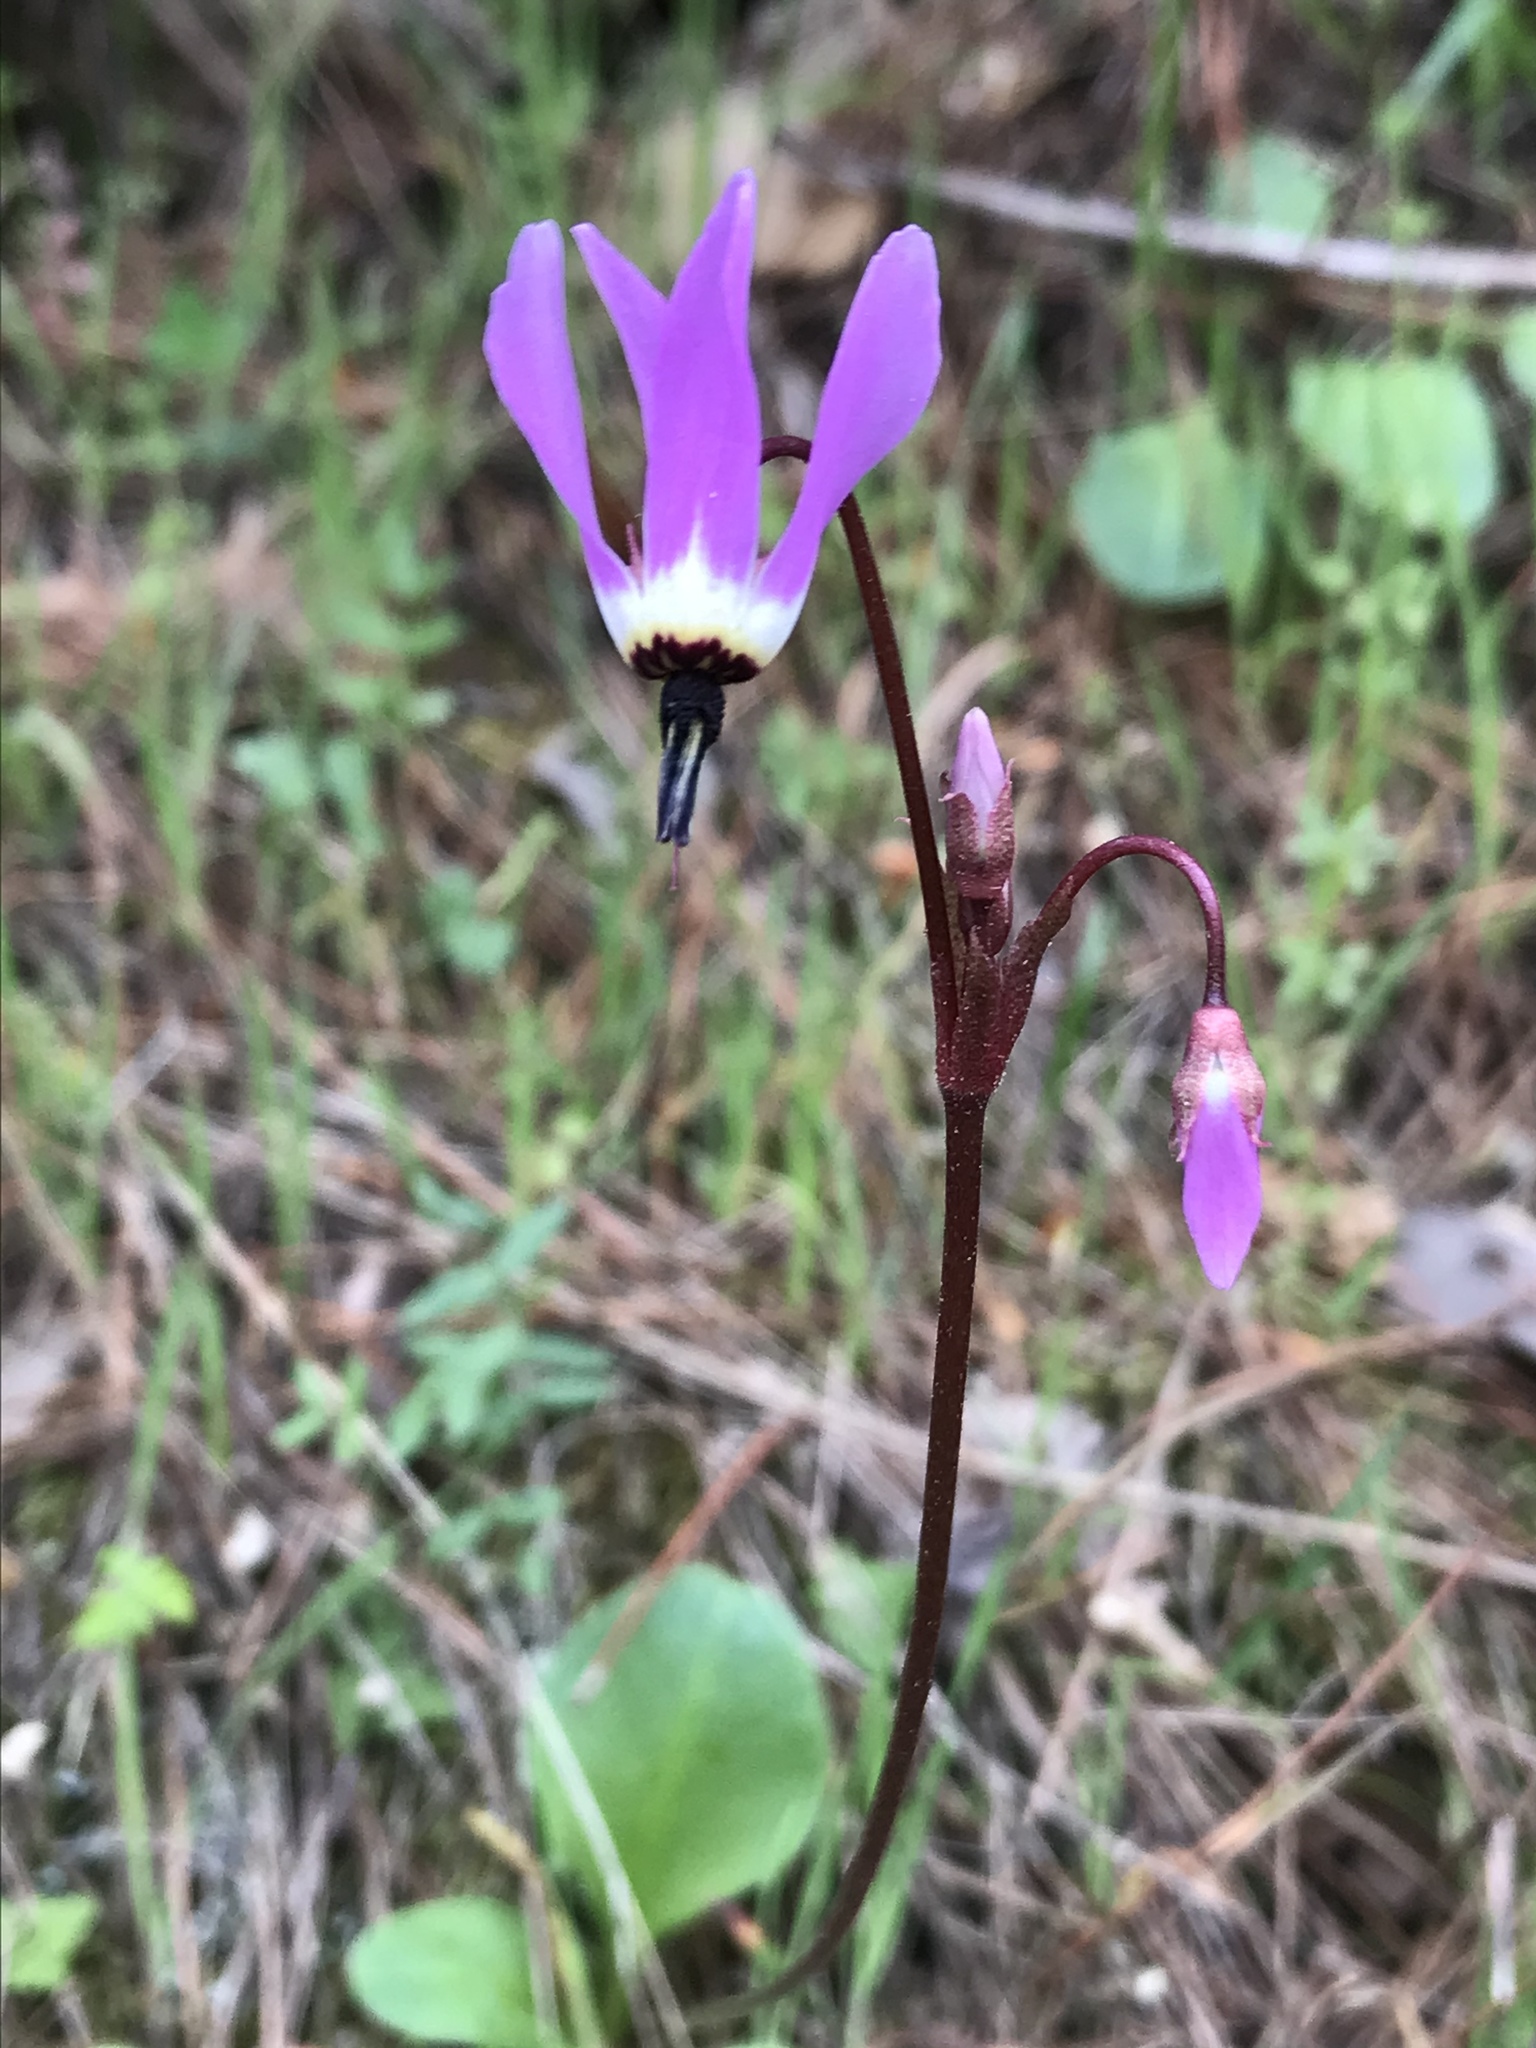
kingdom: Plantae
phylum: Tracheophyta
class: Magnoliopsida
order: Ericales
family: Primulaceae
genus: Dodecatheon
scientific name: Dodecatheon hendersonii
